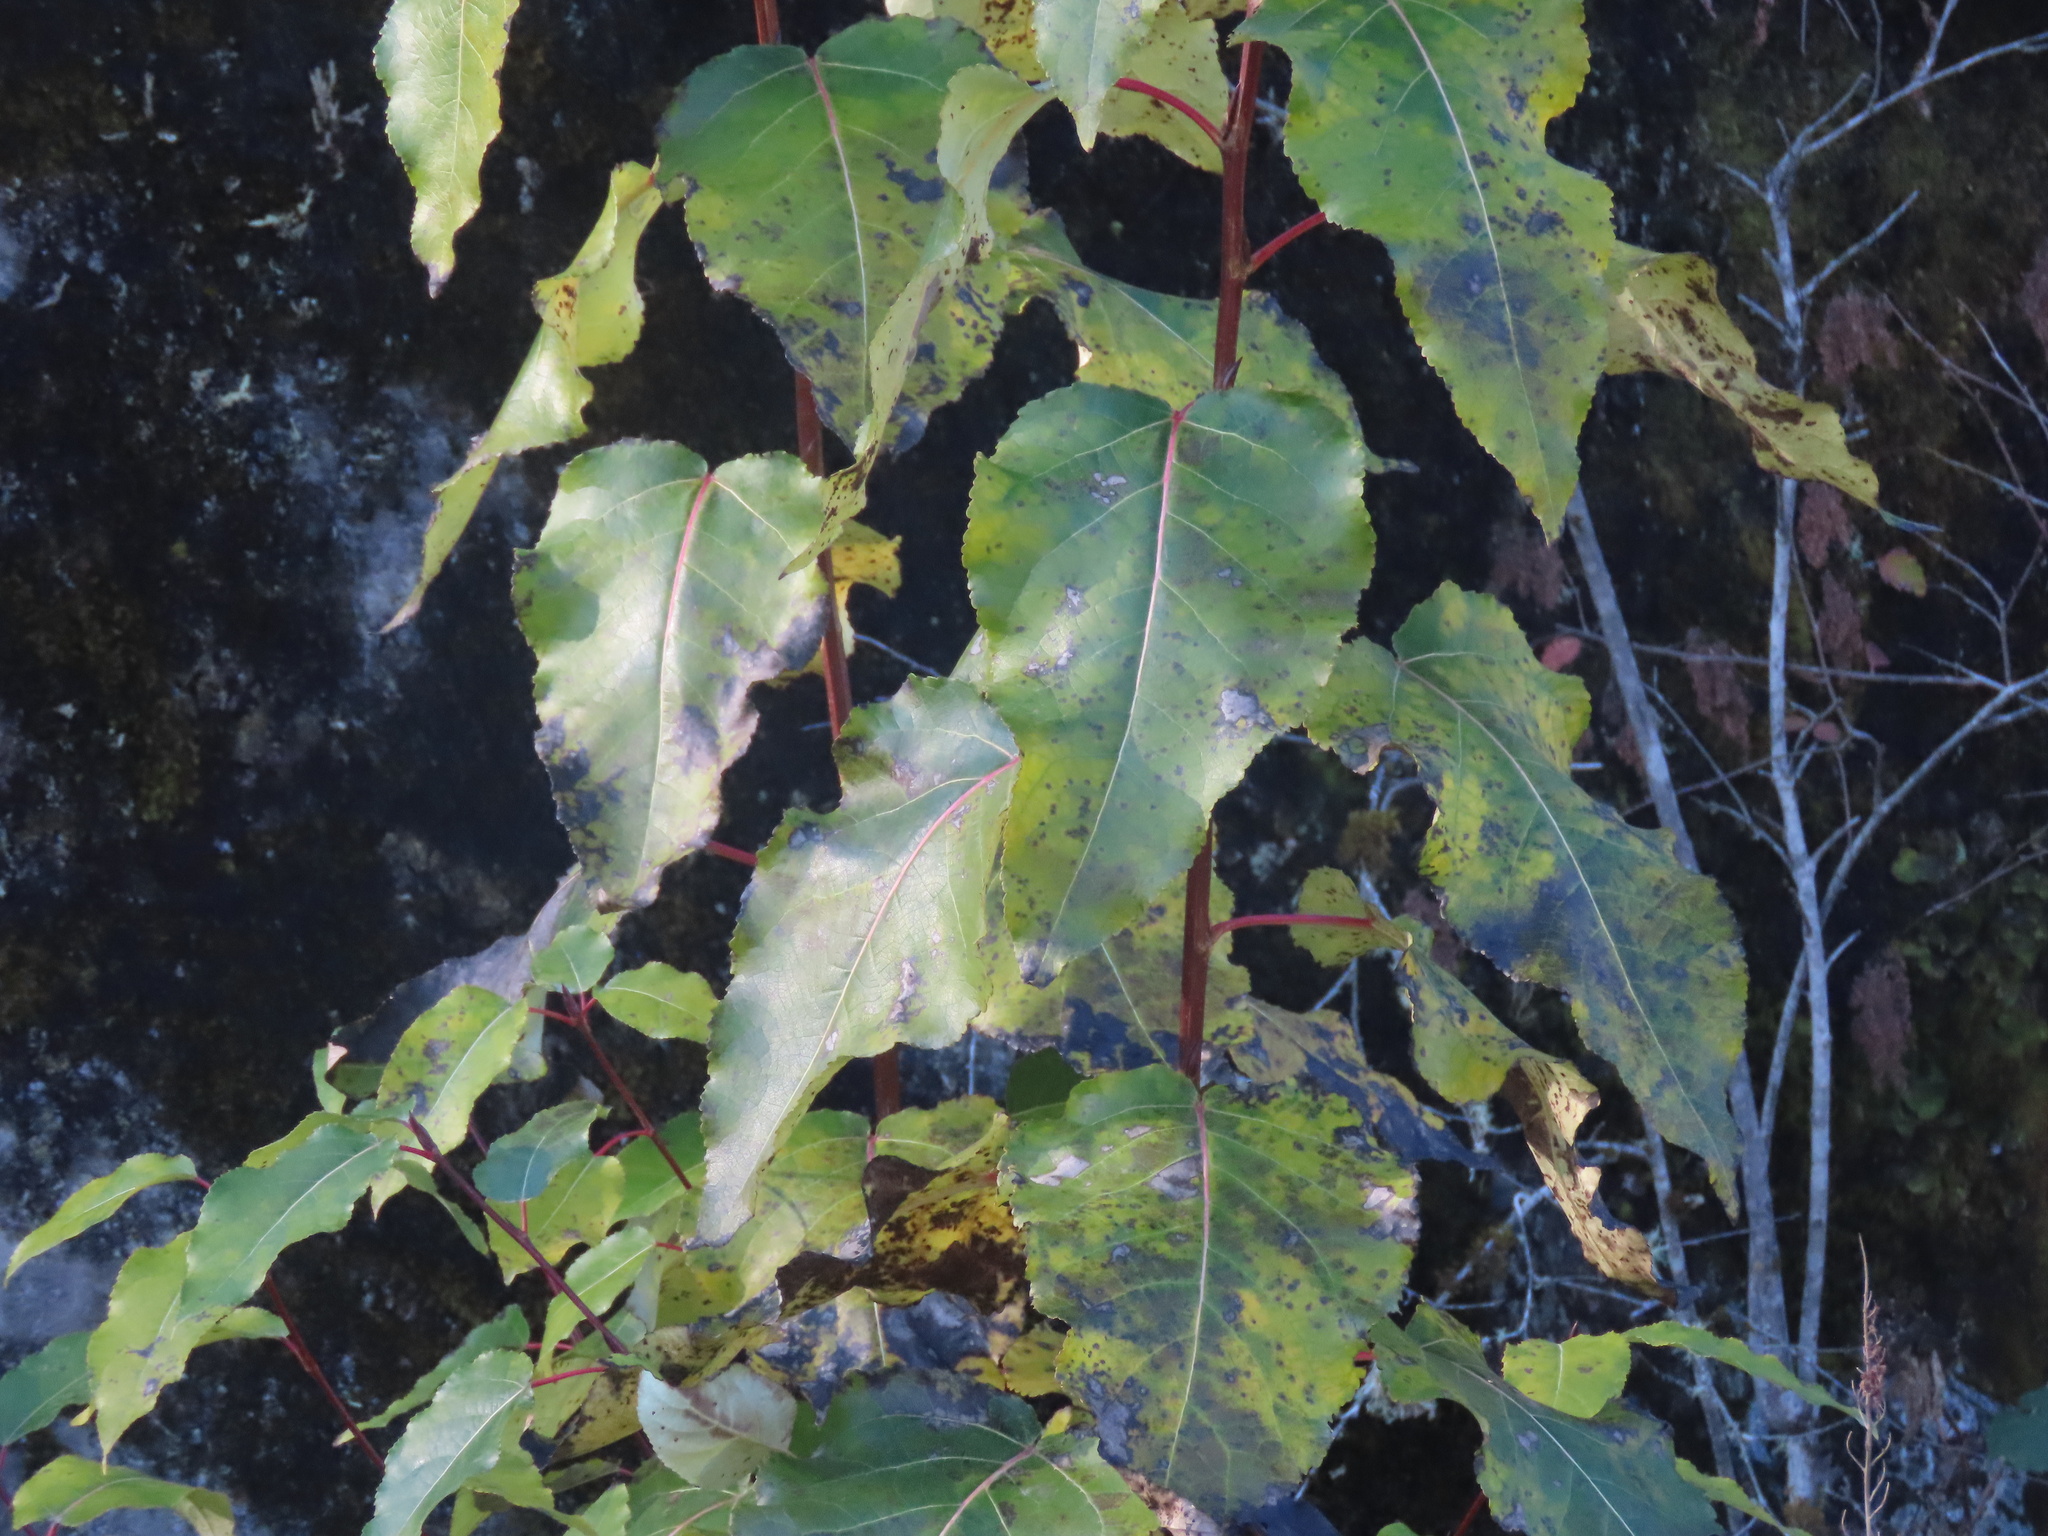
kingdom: Plantae
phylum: Tracheophyta
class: Magnoliopsida
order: Malpighiales
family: Salicaceae
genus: Populus
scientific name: Populus trichocarpa
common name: Black cottonwood
